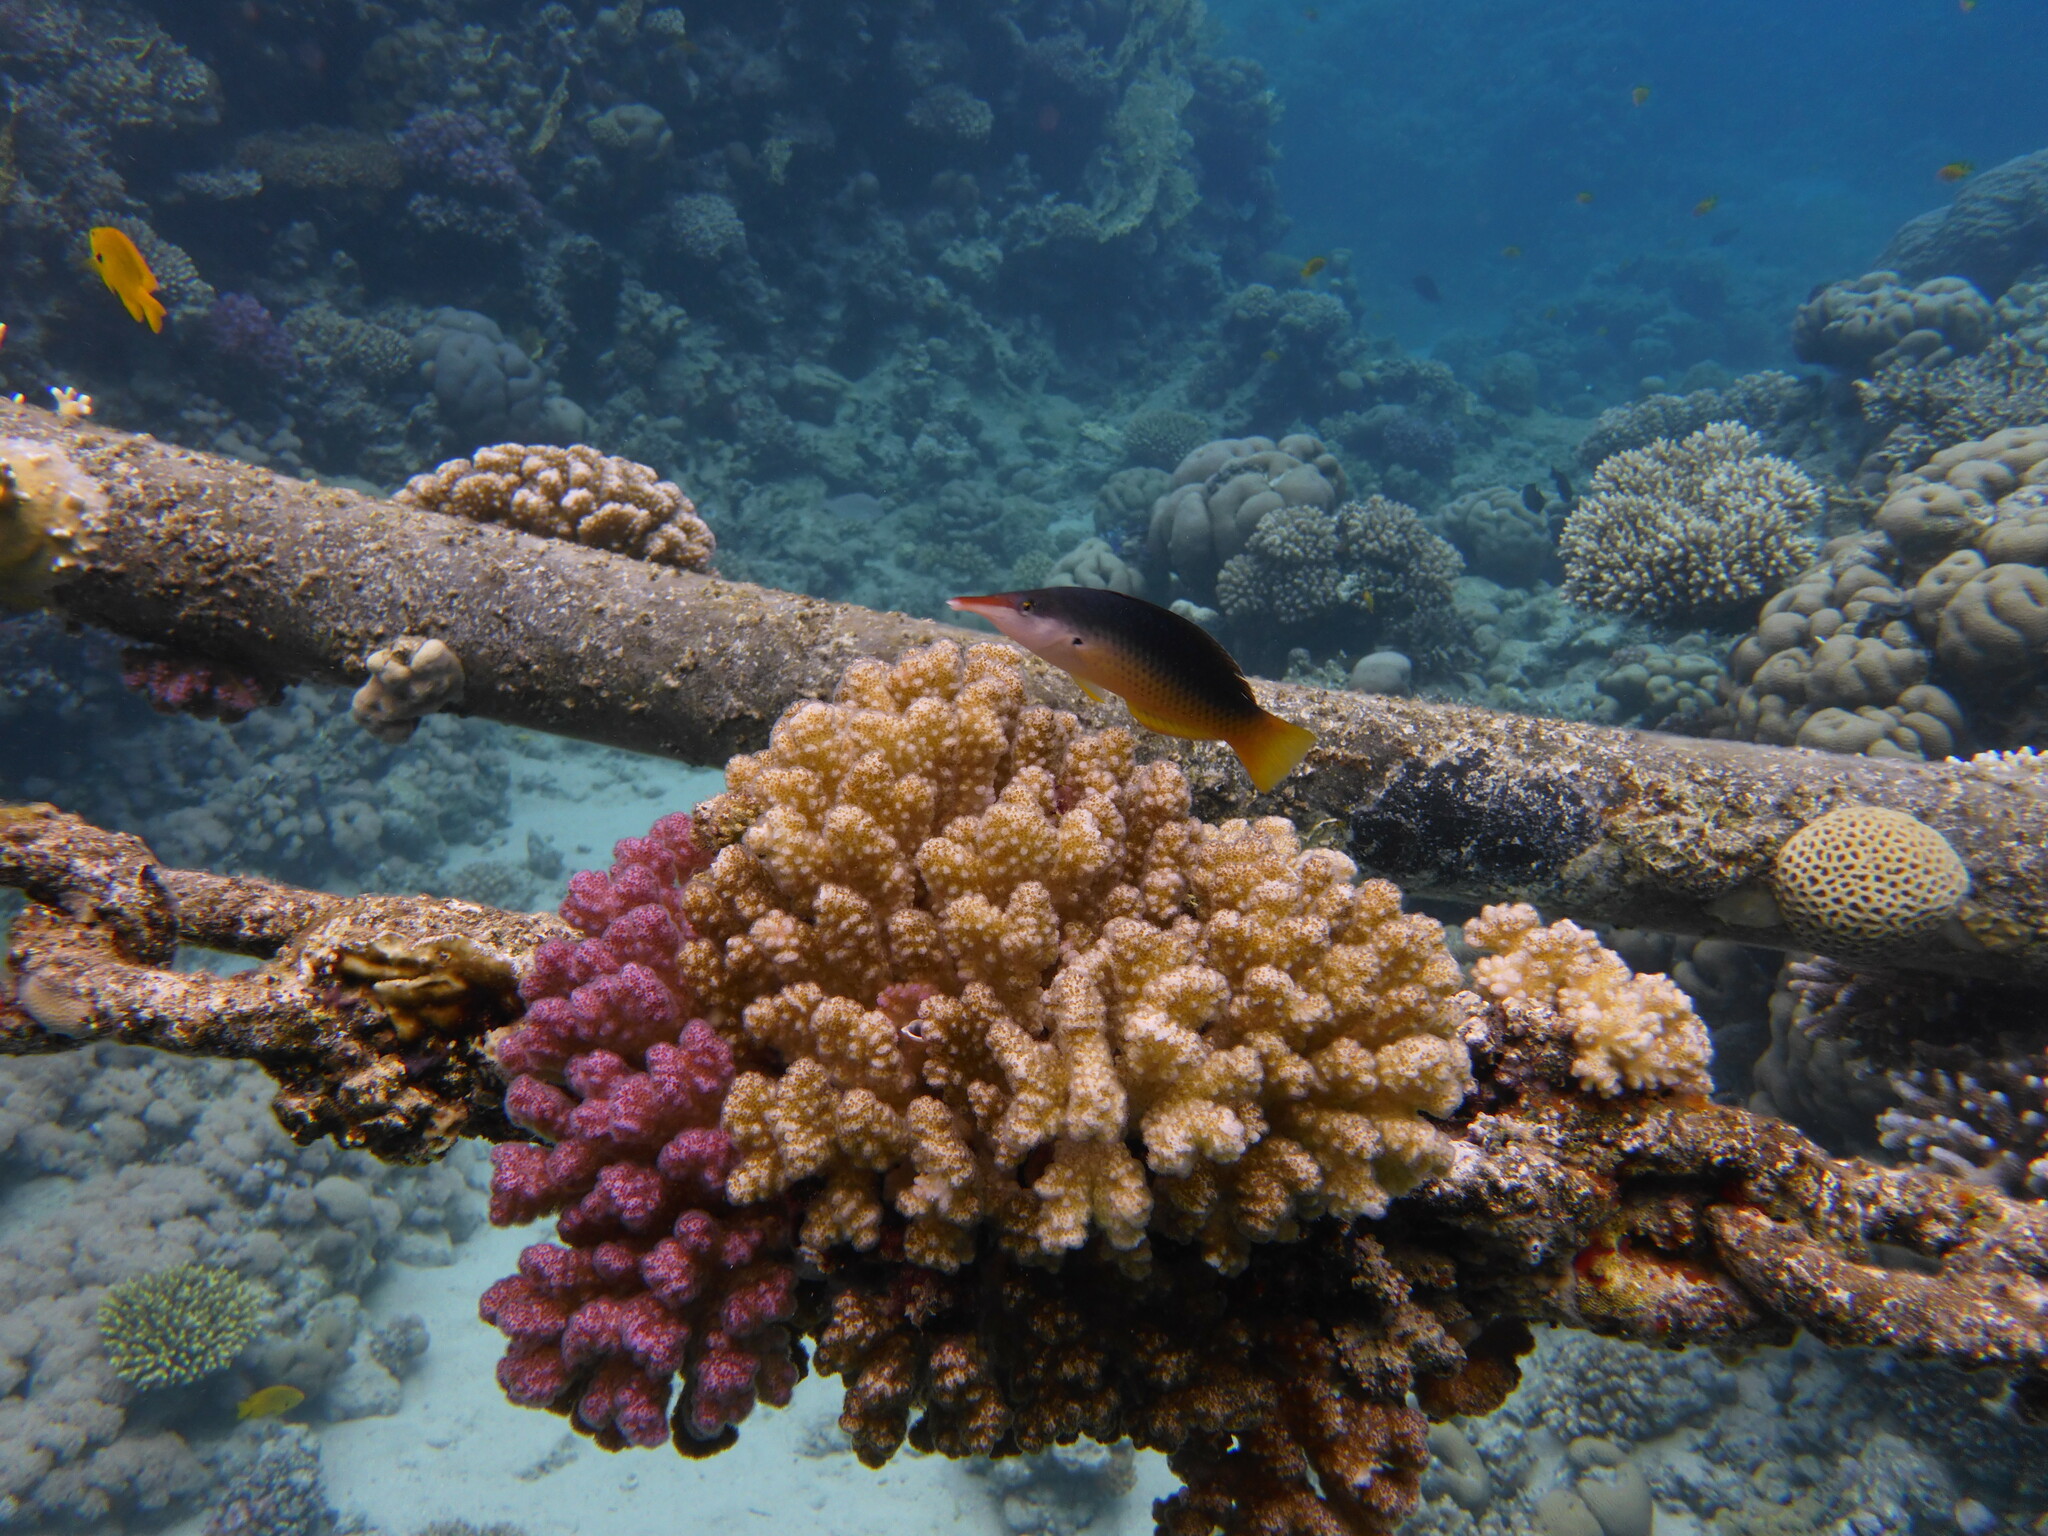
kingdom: Animalia
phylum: Cnidaria
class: Anthozoa
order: Scleractinia
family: Pocilloporidae
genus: Pocillopora
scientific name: Pocillopora verrucosa
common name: Cauliflower coral
